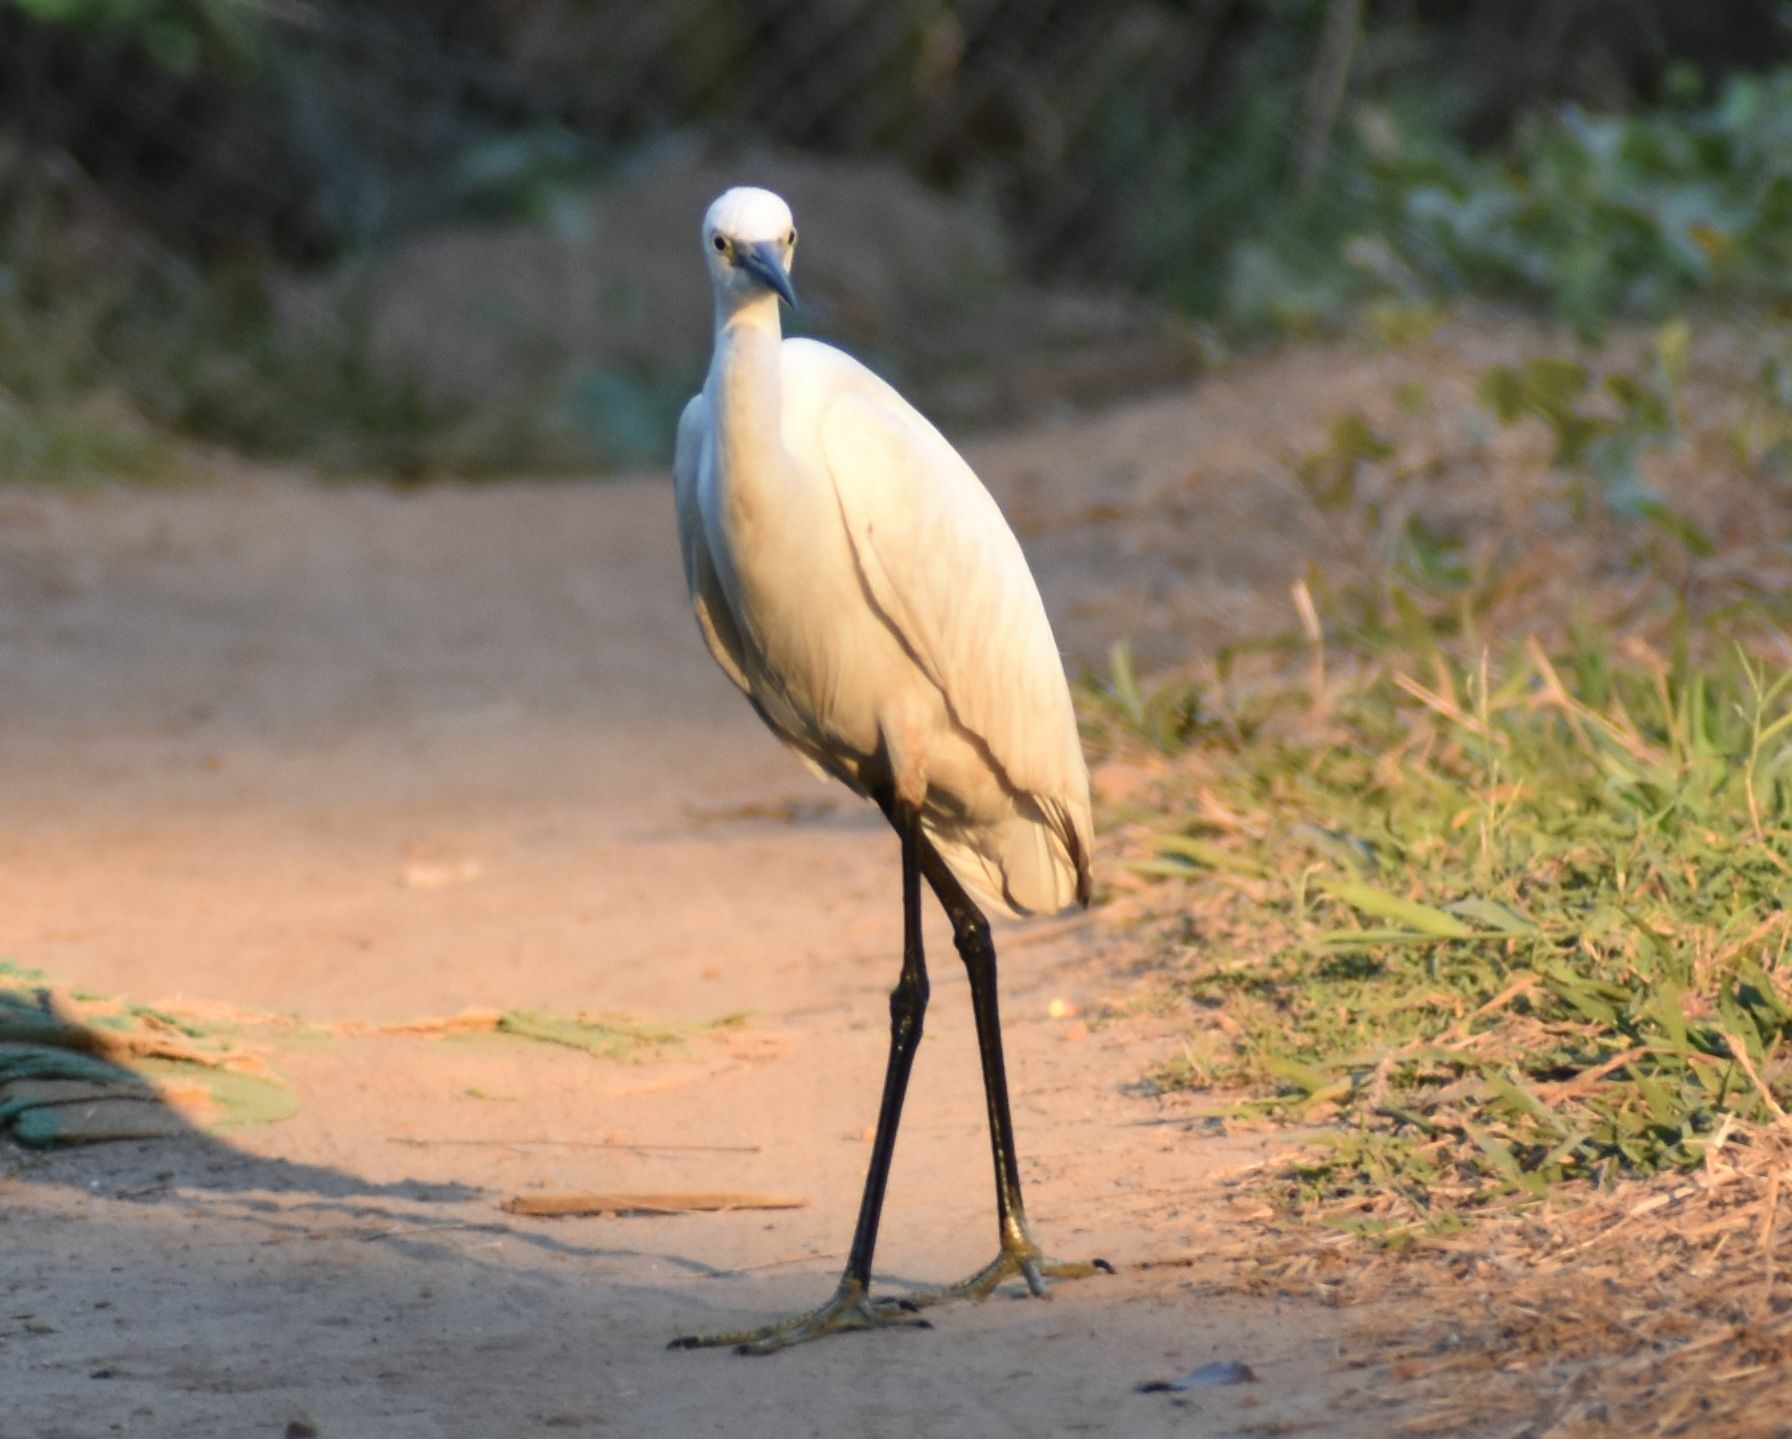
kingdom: Animalia
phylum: Chordata
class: Aves
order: Pelecaniformes
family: Ardeidae
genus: Egretta
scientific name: Egretta garzetta
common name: Little egret
